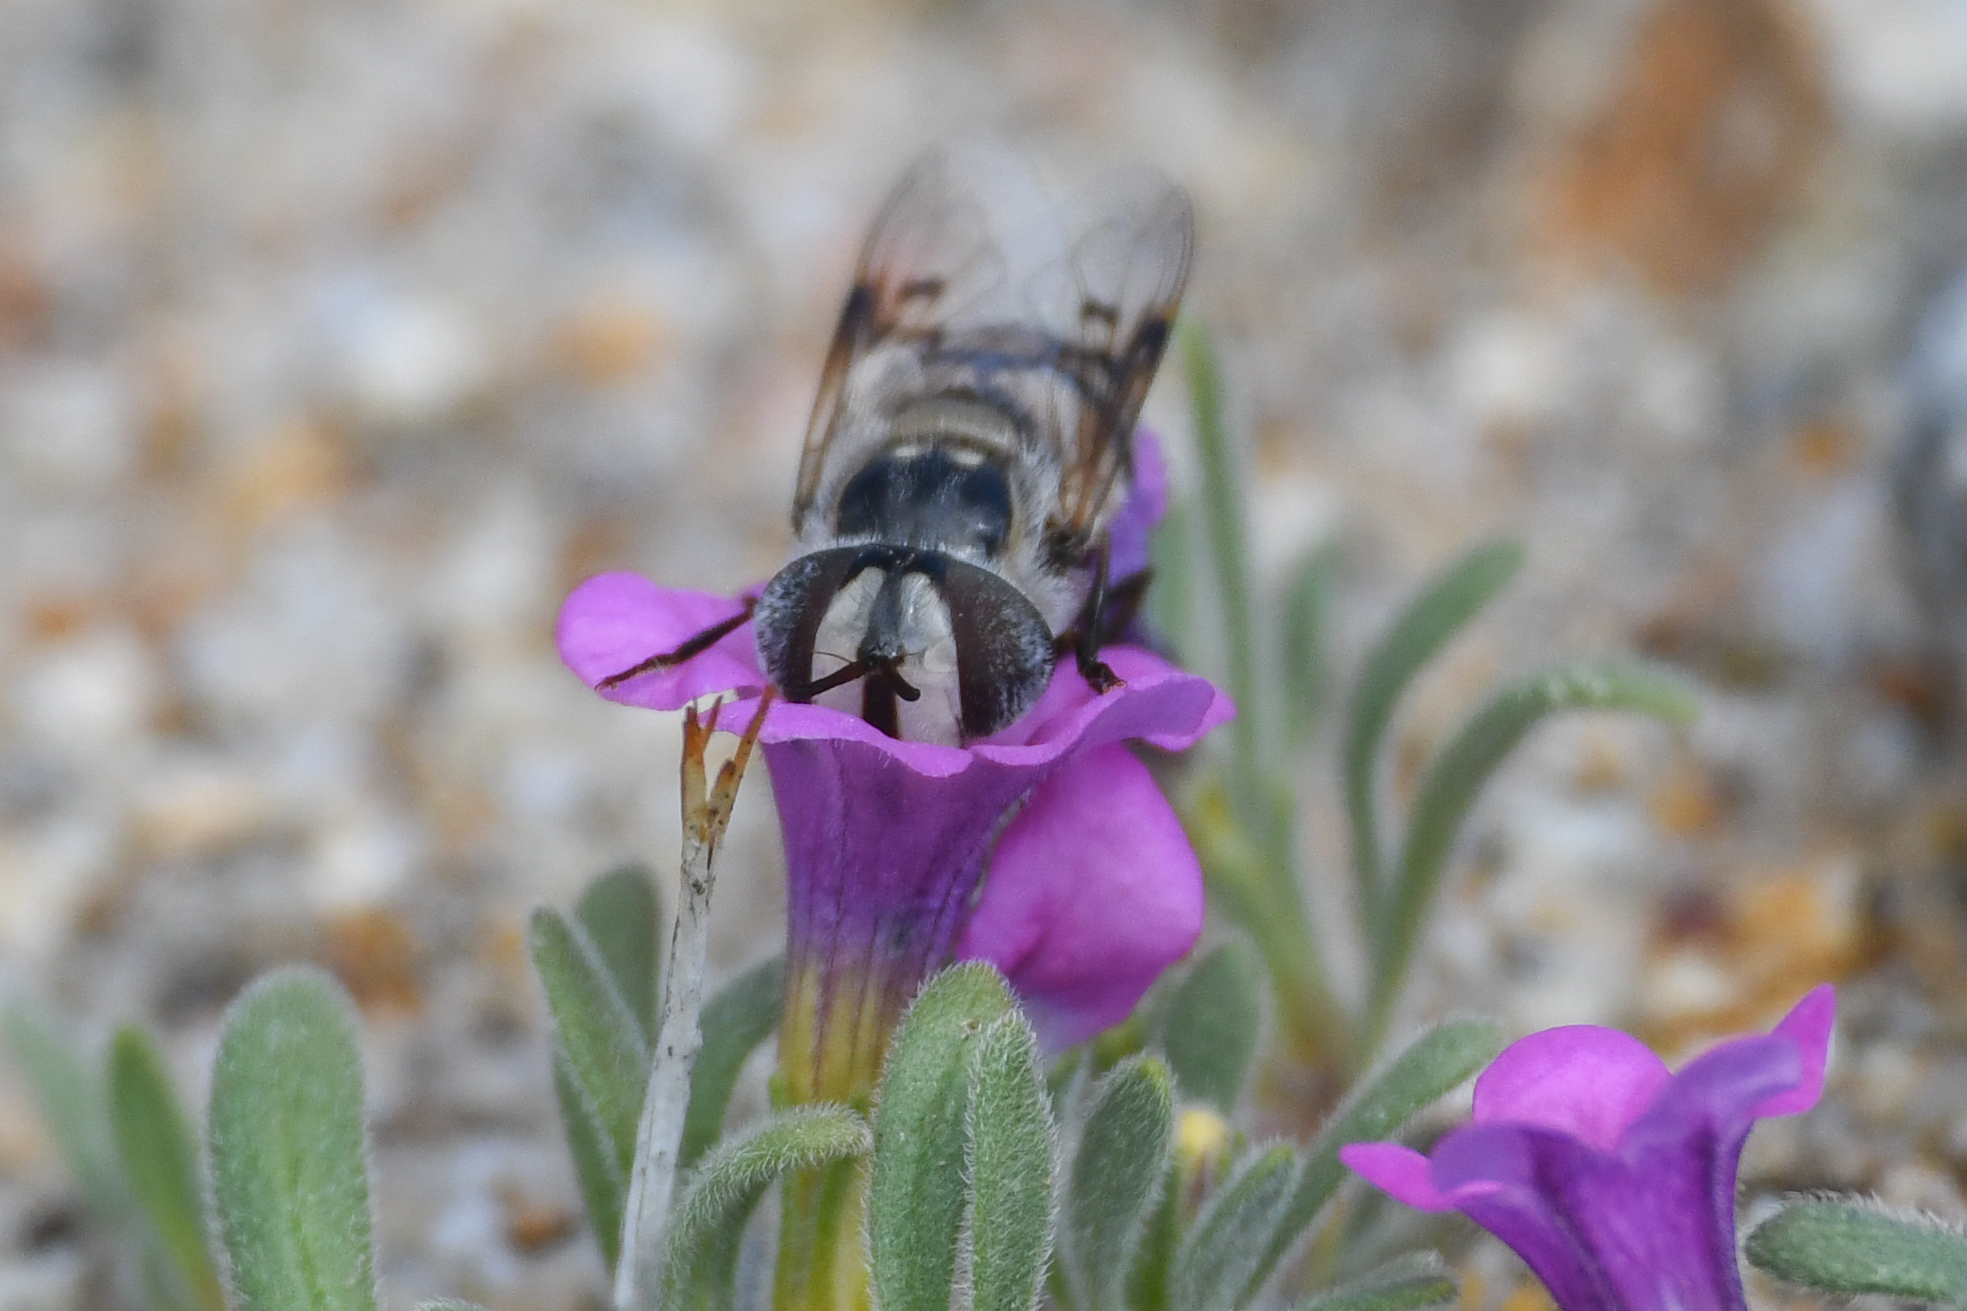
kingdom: Animalia
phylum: Arthropoda
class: Insecta
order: Diptera
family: Syrphidae
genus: Copestylum
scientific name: Copestylum fornax
